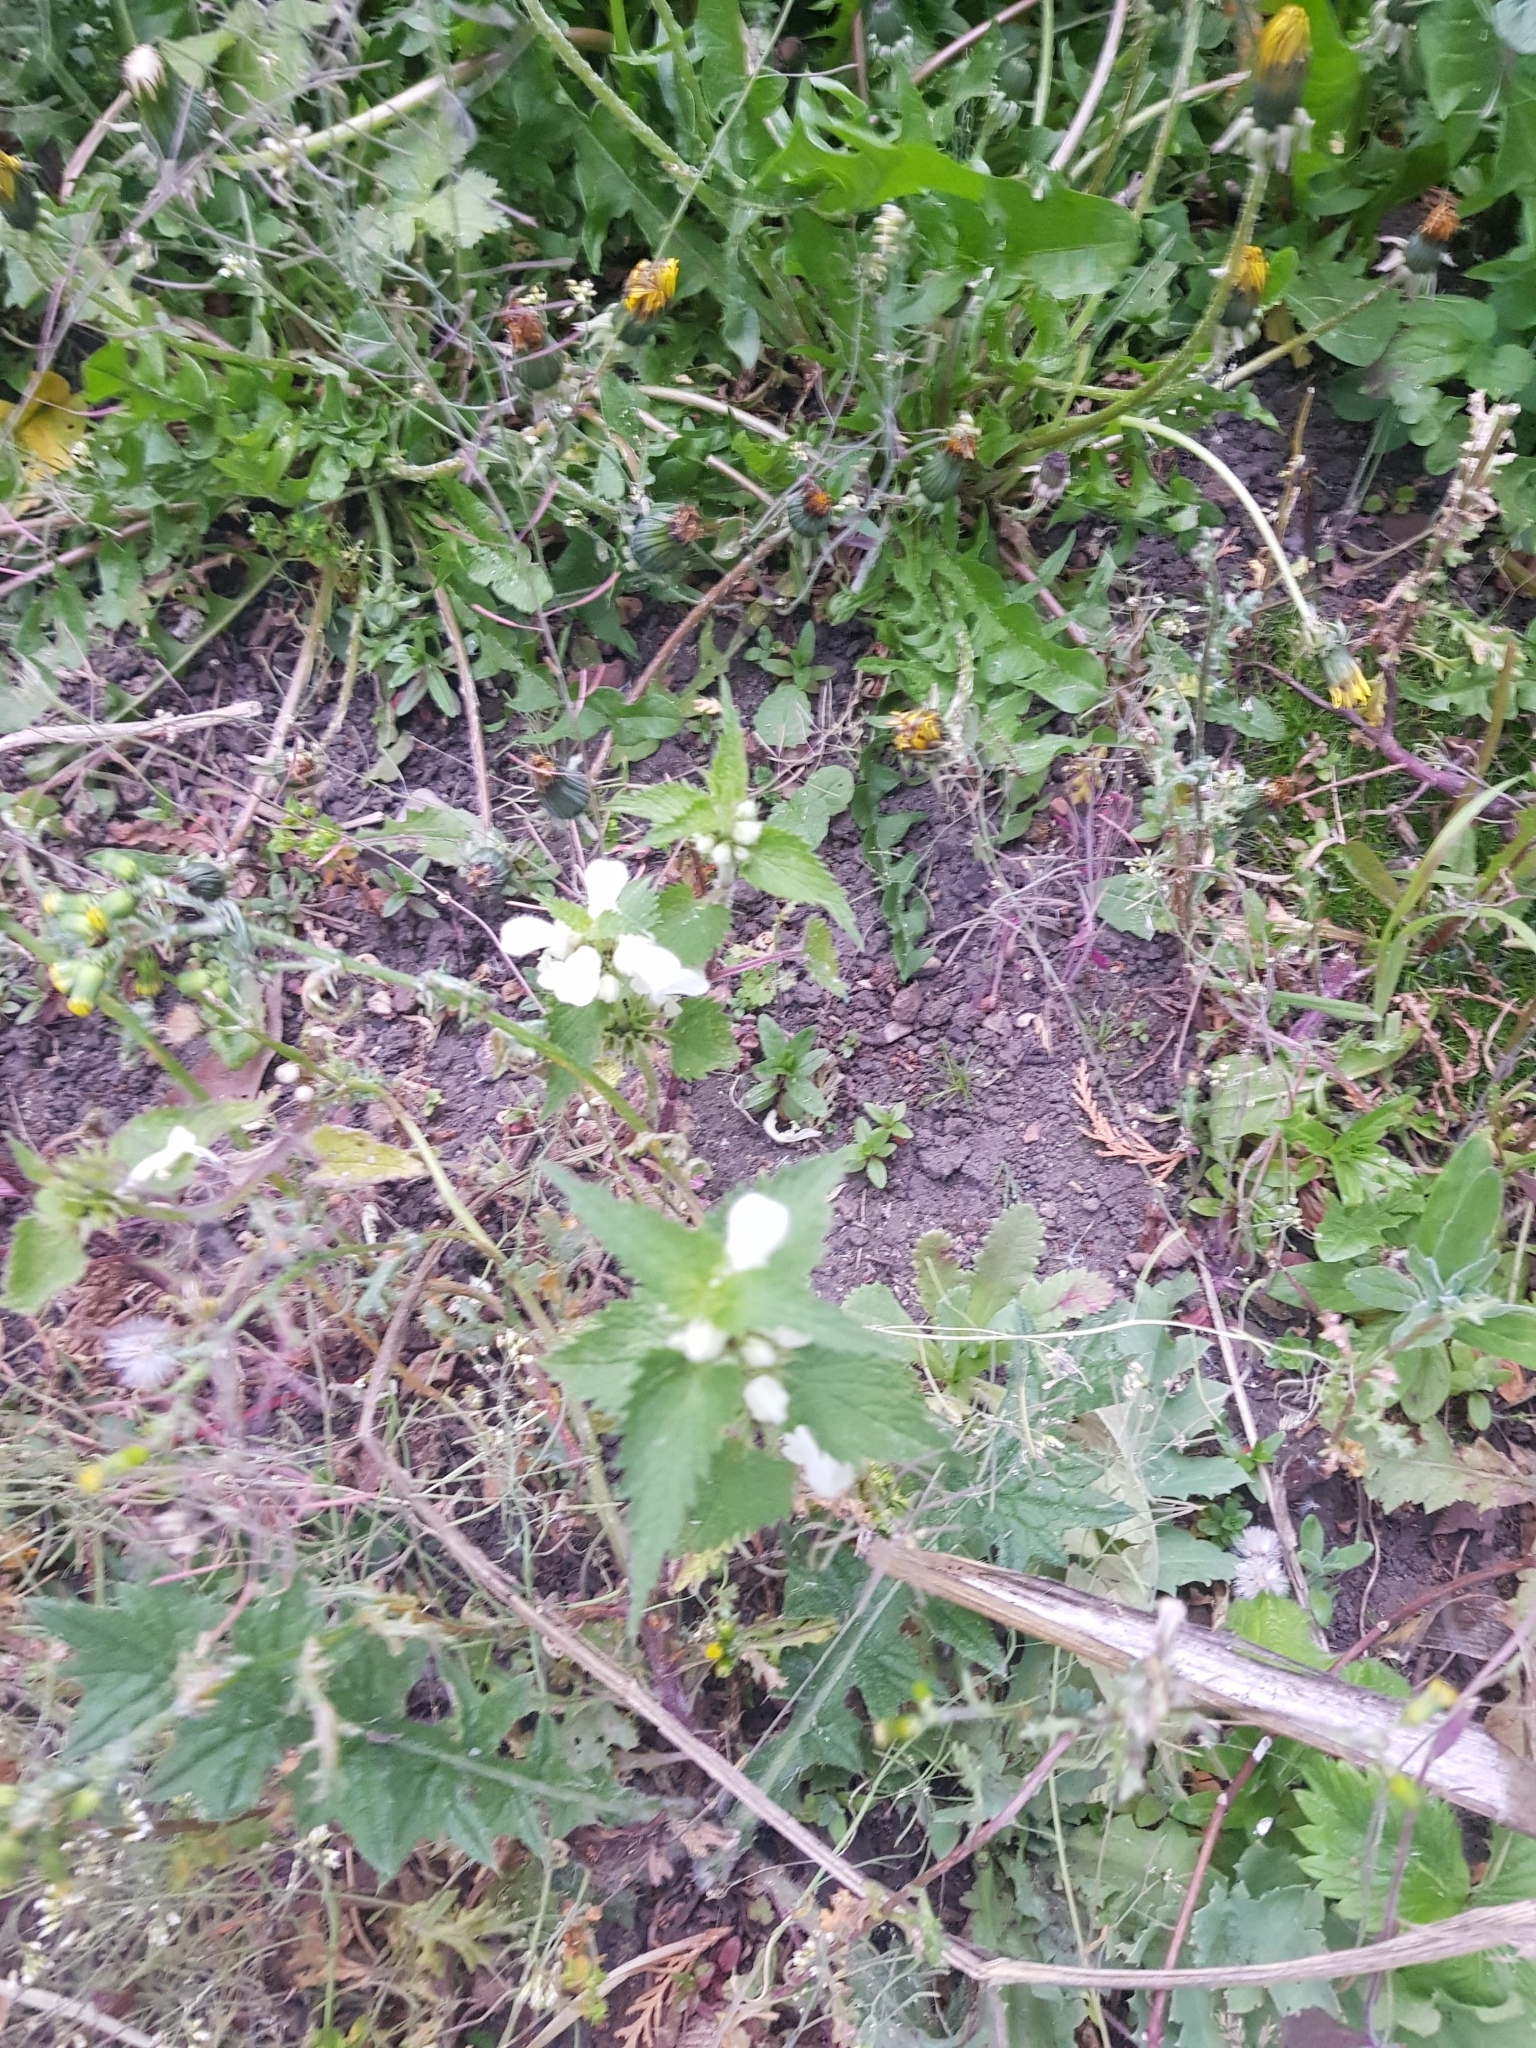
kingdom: Plantae
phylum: Tracheophyta
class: Magnoliopsida
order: Lamiales
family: Lamiaceae
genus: Lamium
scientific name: Lamium album
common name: White dead-nettle
